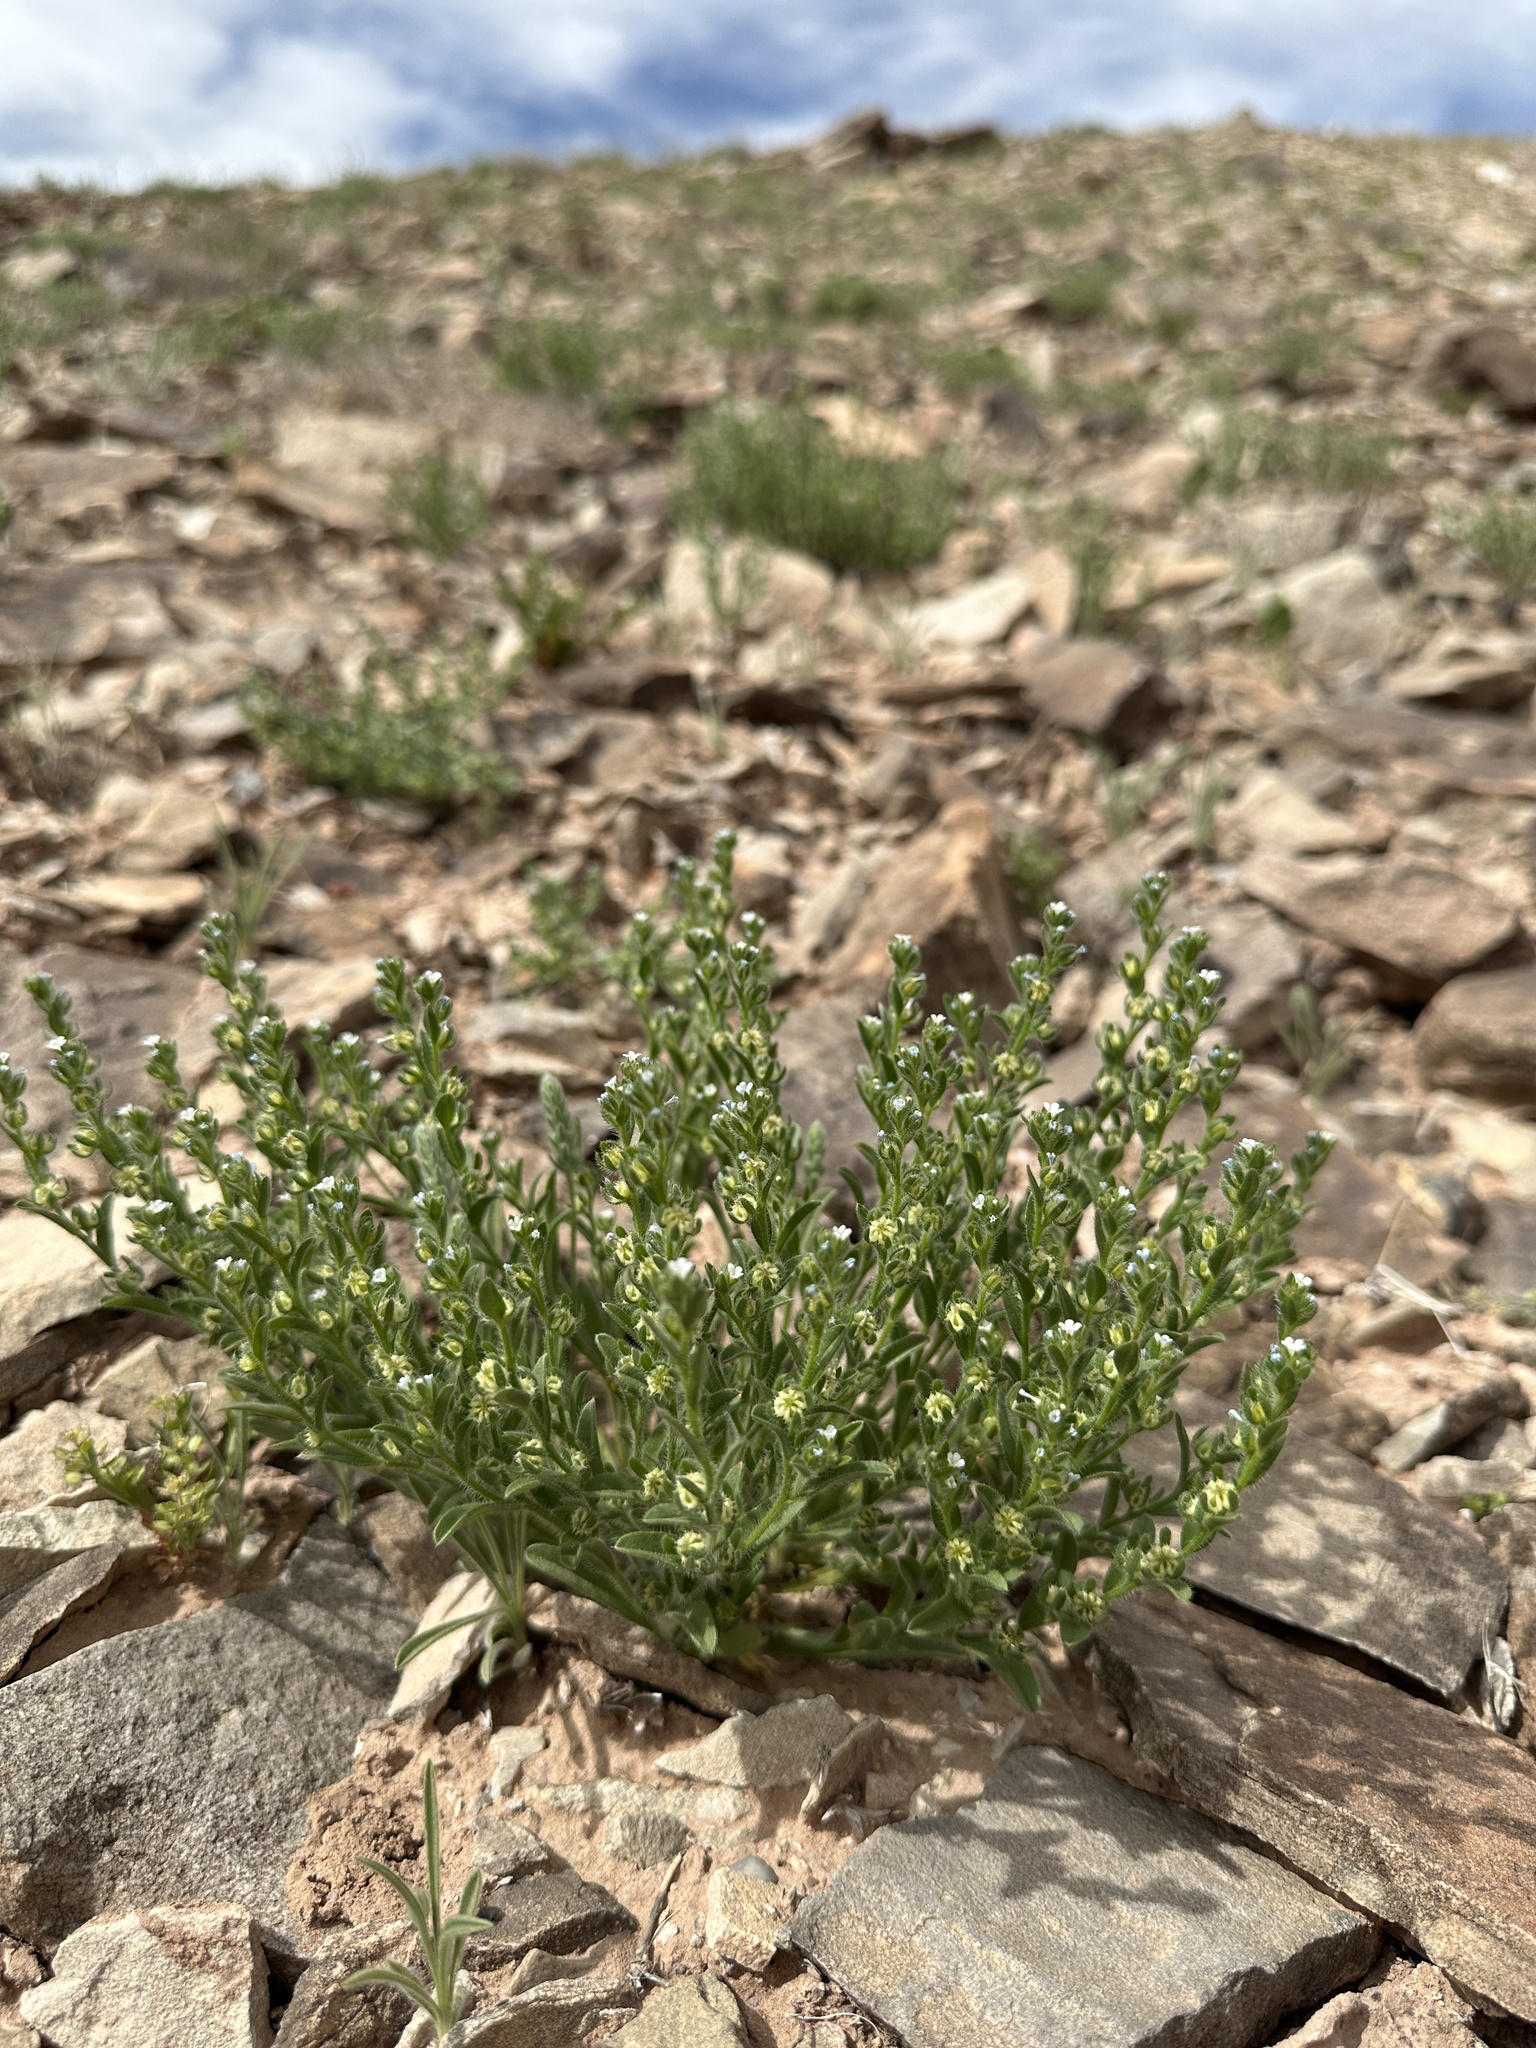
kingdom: Plantae
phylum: Tracheophyta
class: Magnoliopsida
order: Boraginales
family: Boraginaceae
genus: Lappula
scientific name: Lappula occidentalis
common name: Western stickseed
